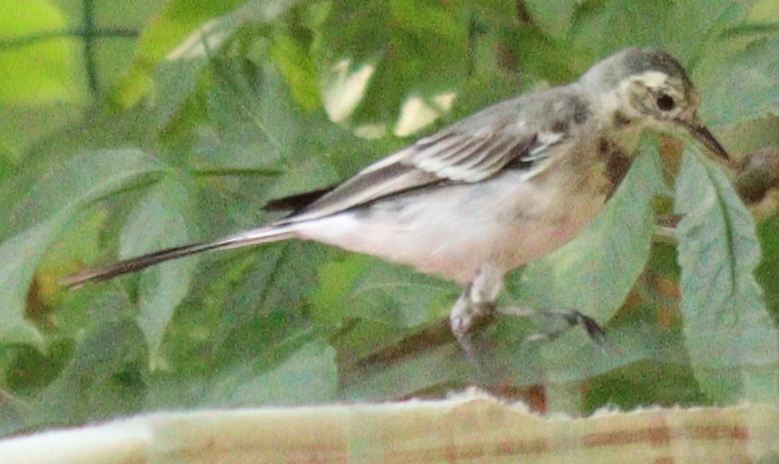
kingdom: Animalia
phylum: Chordata
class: Aves
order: Passeriformes
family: Motacillidae
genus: Motacilla
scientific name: Motacilla alba
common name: White wagtail
